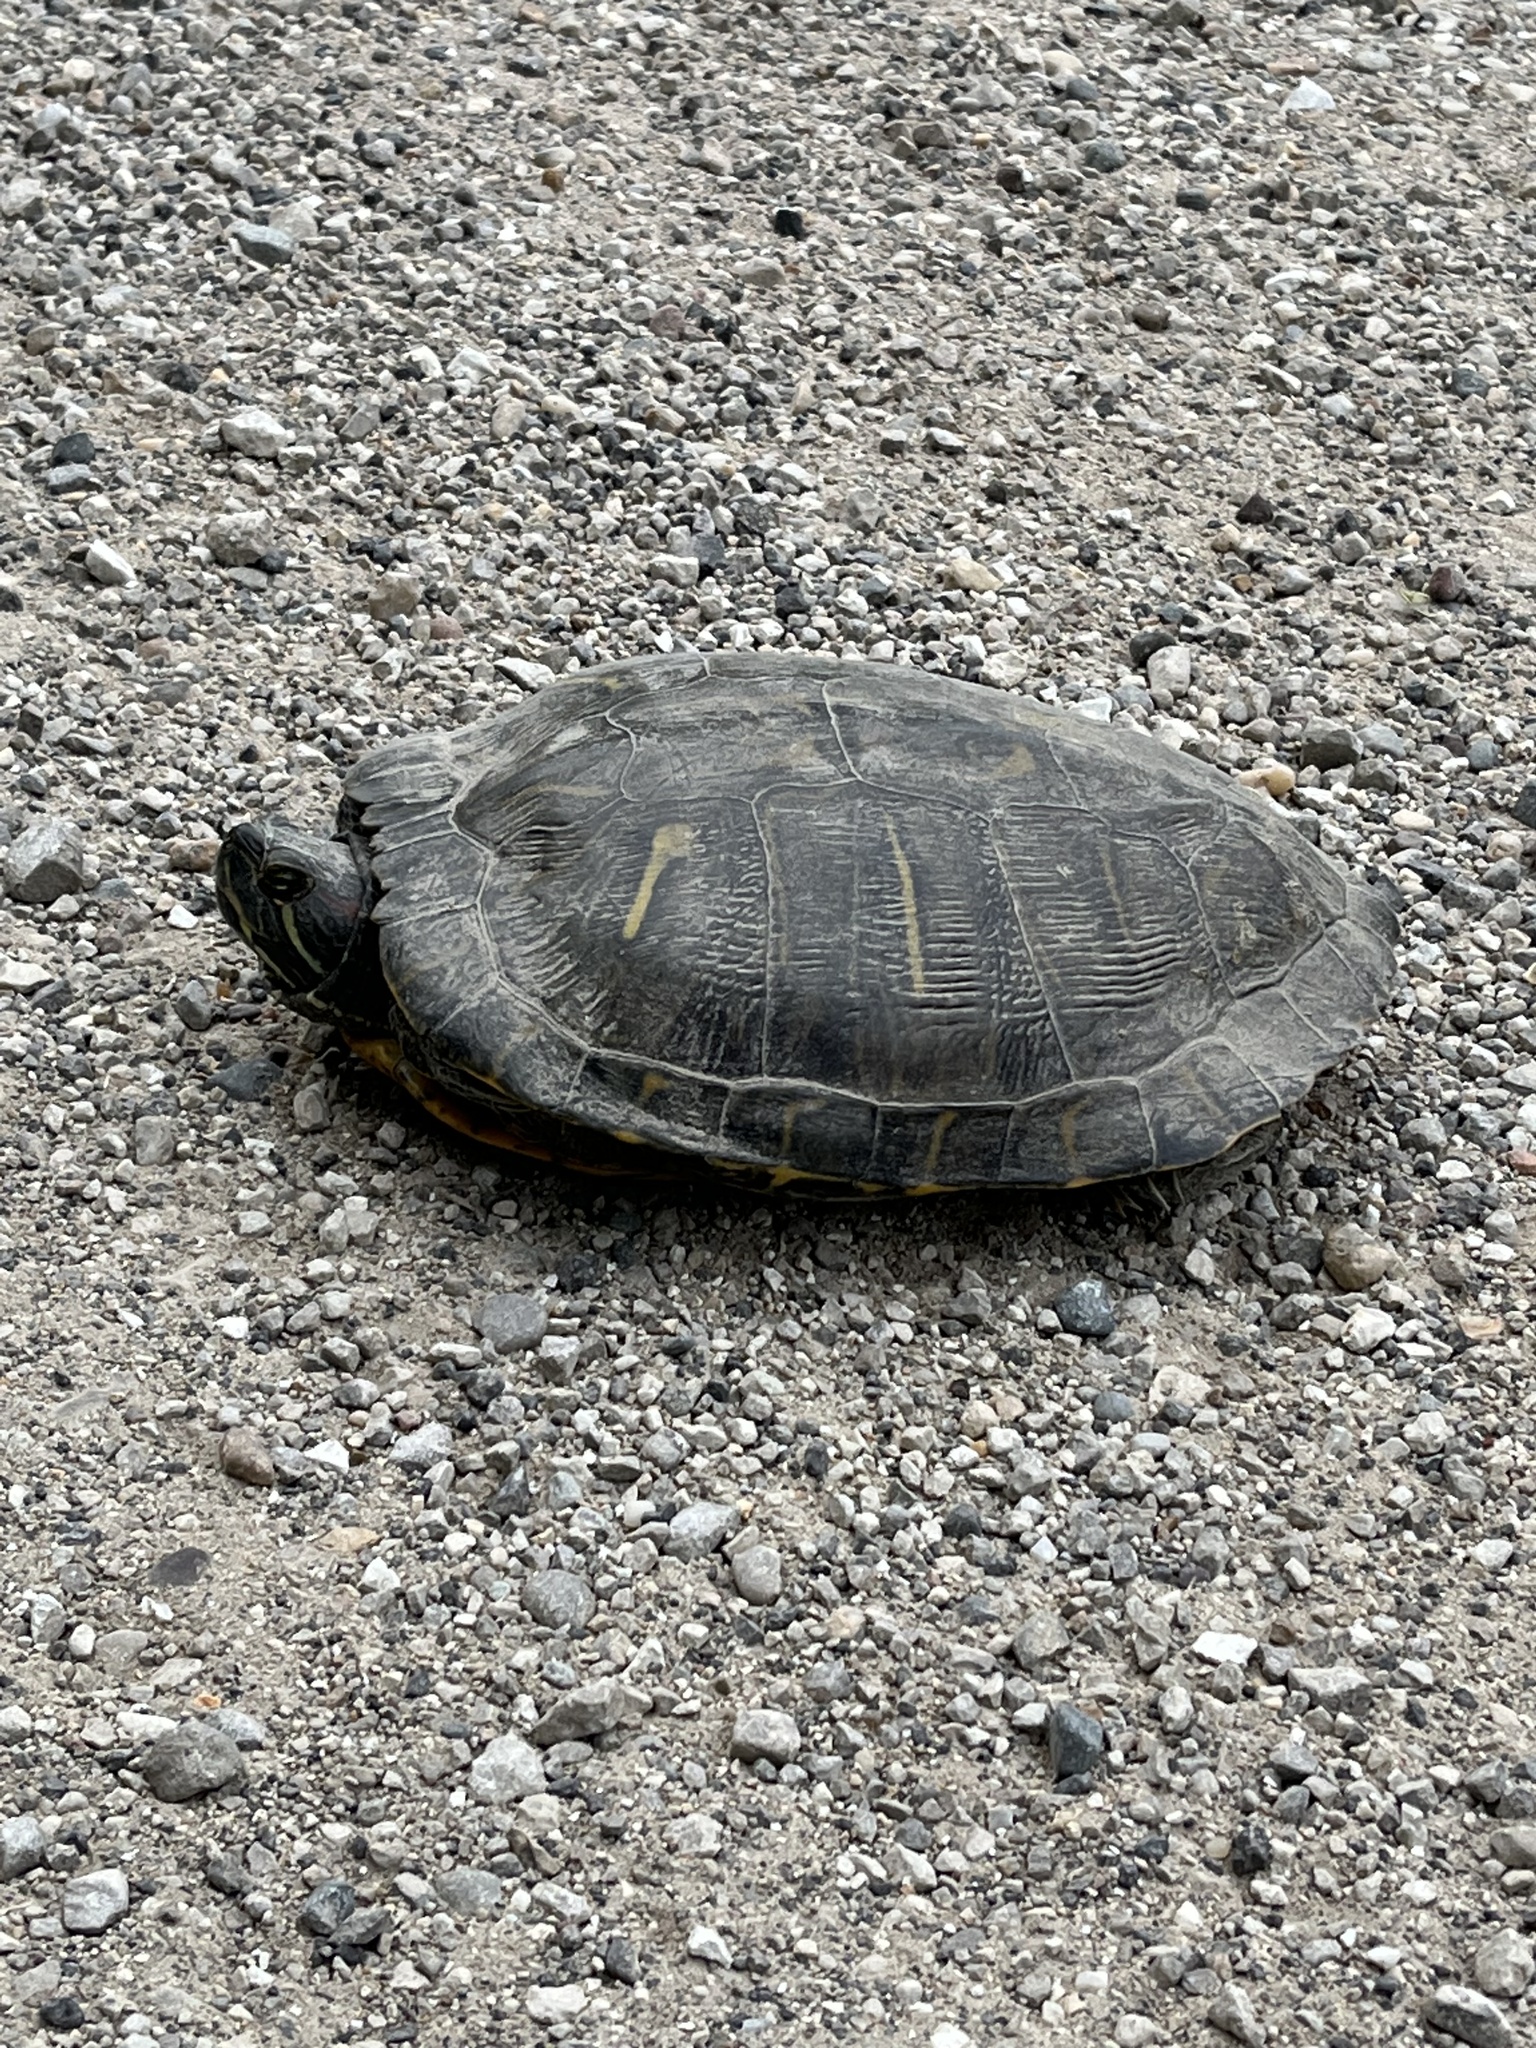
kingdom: Animalia
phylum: Chordata
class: Testudines
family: Emydidae
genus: Trachemys
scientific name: Trachemys scripta
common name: Slider
